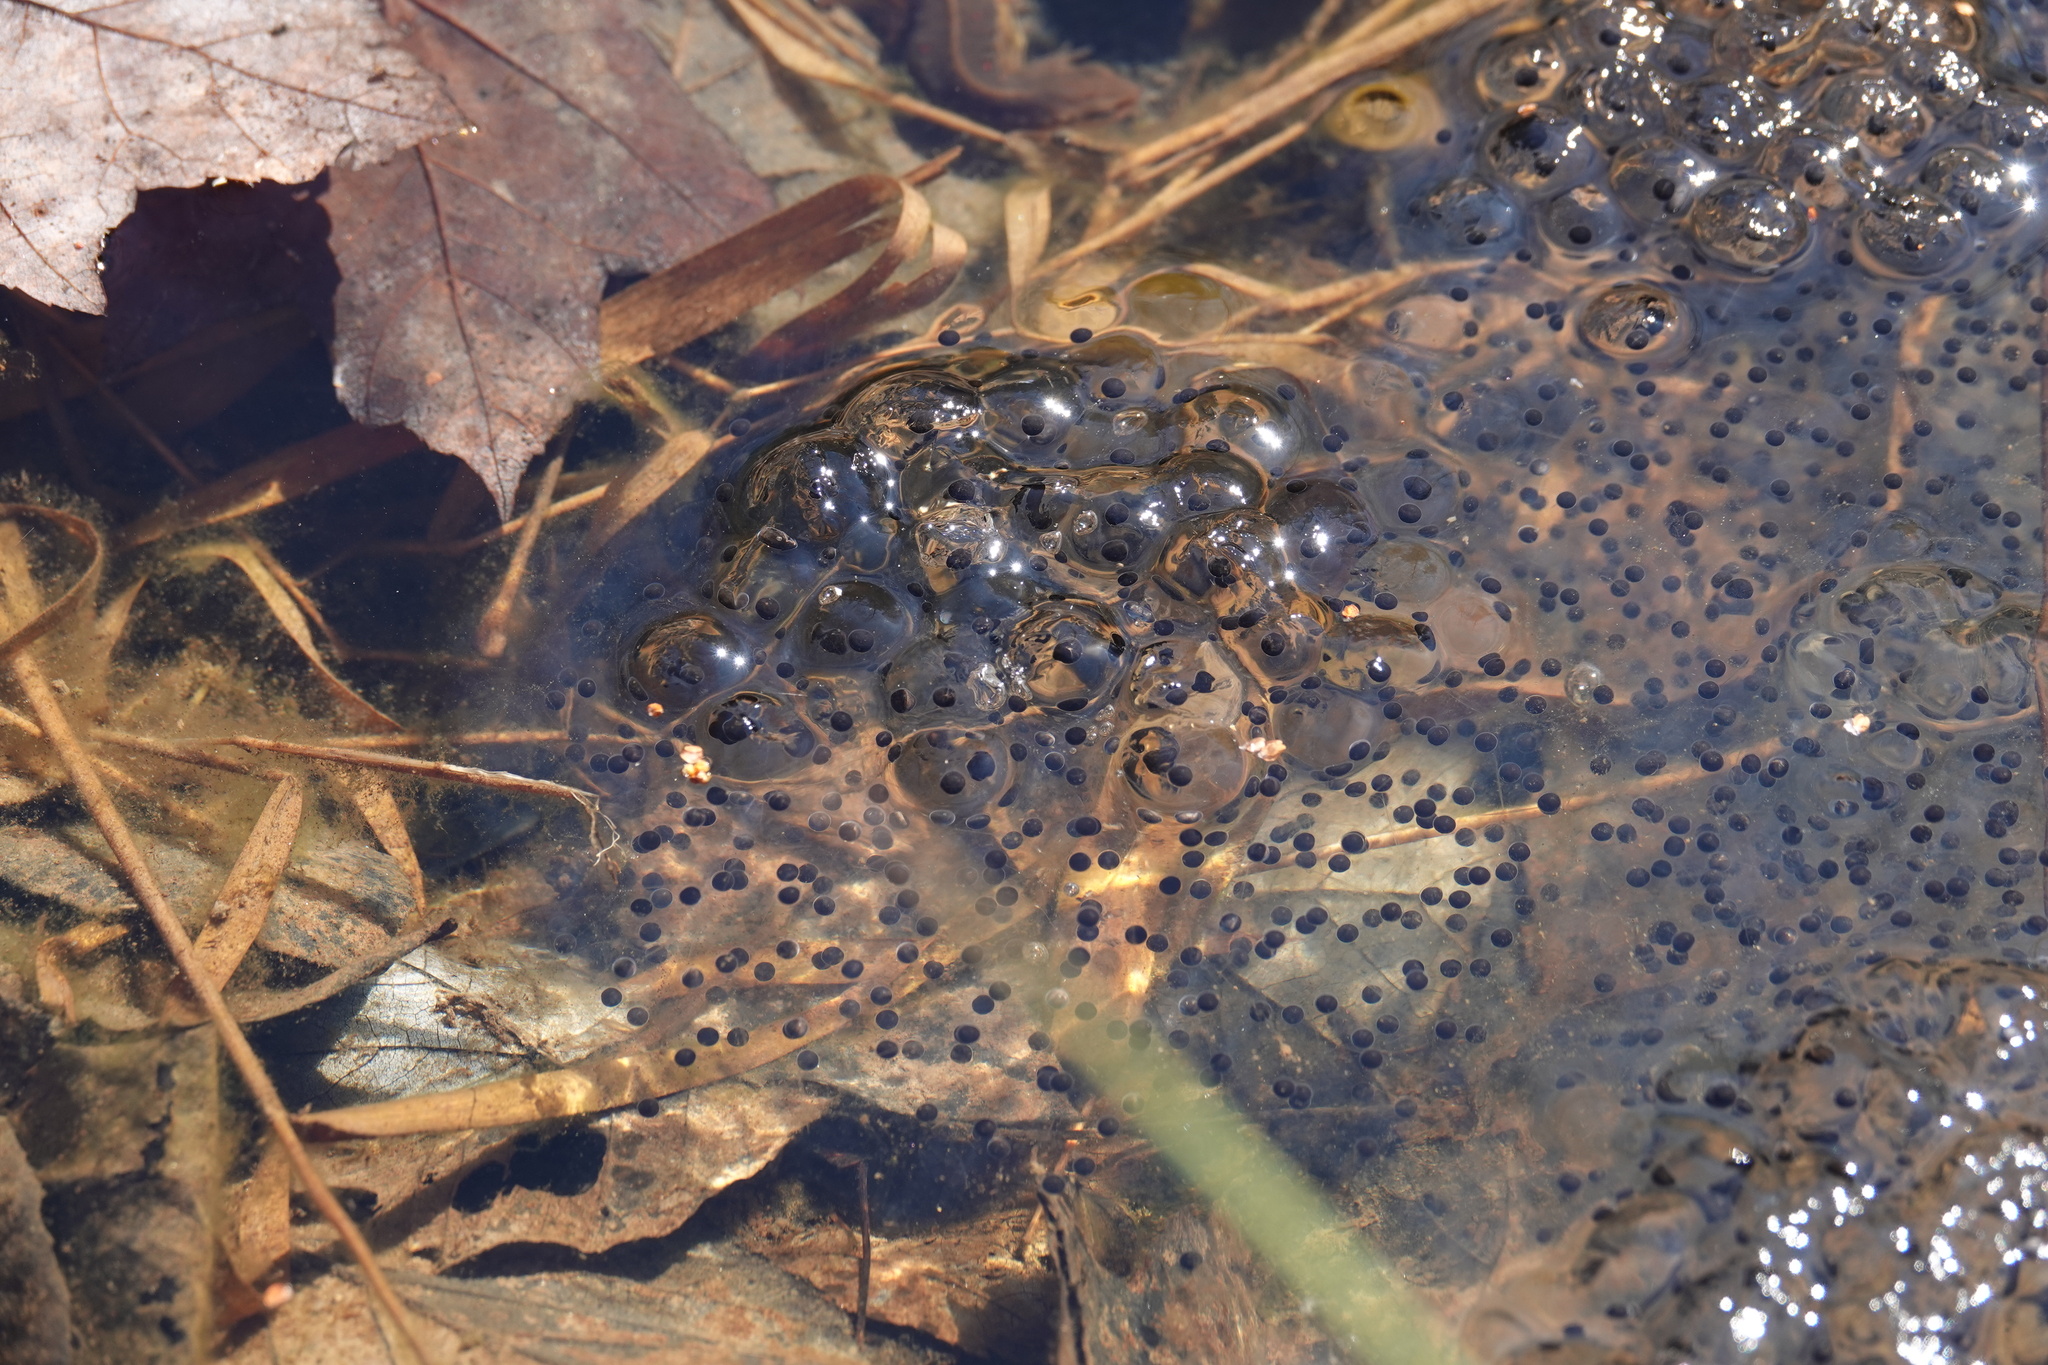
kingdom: Animalia
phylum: Chordata
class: Amphibia
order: Anura
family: Ranidae
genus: Lithobates
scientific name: Lithobates sylvaticus
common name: Wood frog
